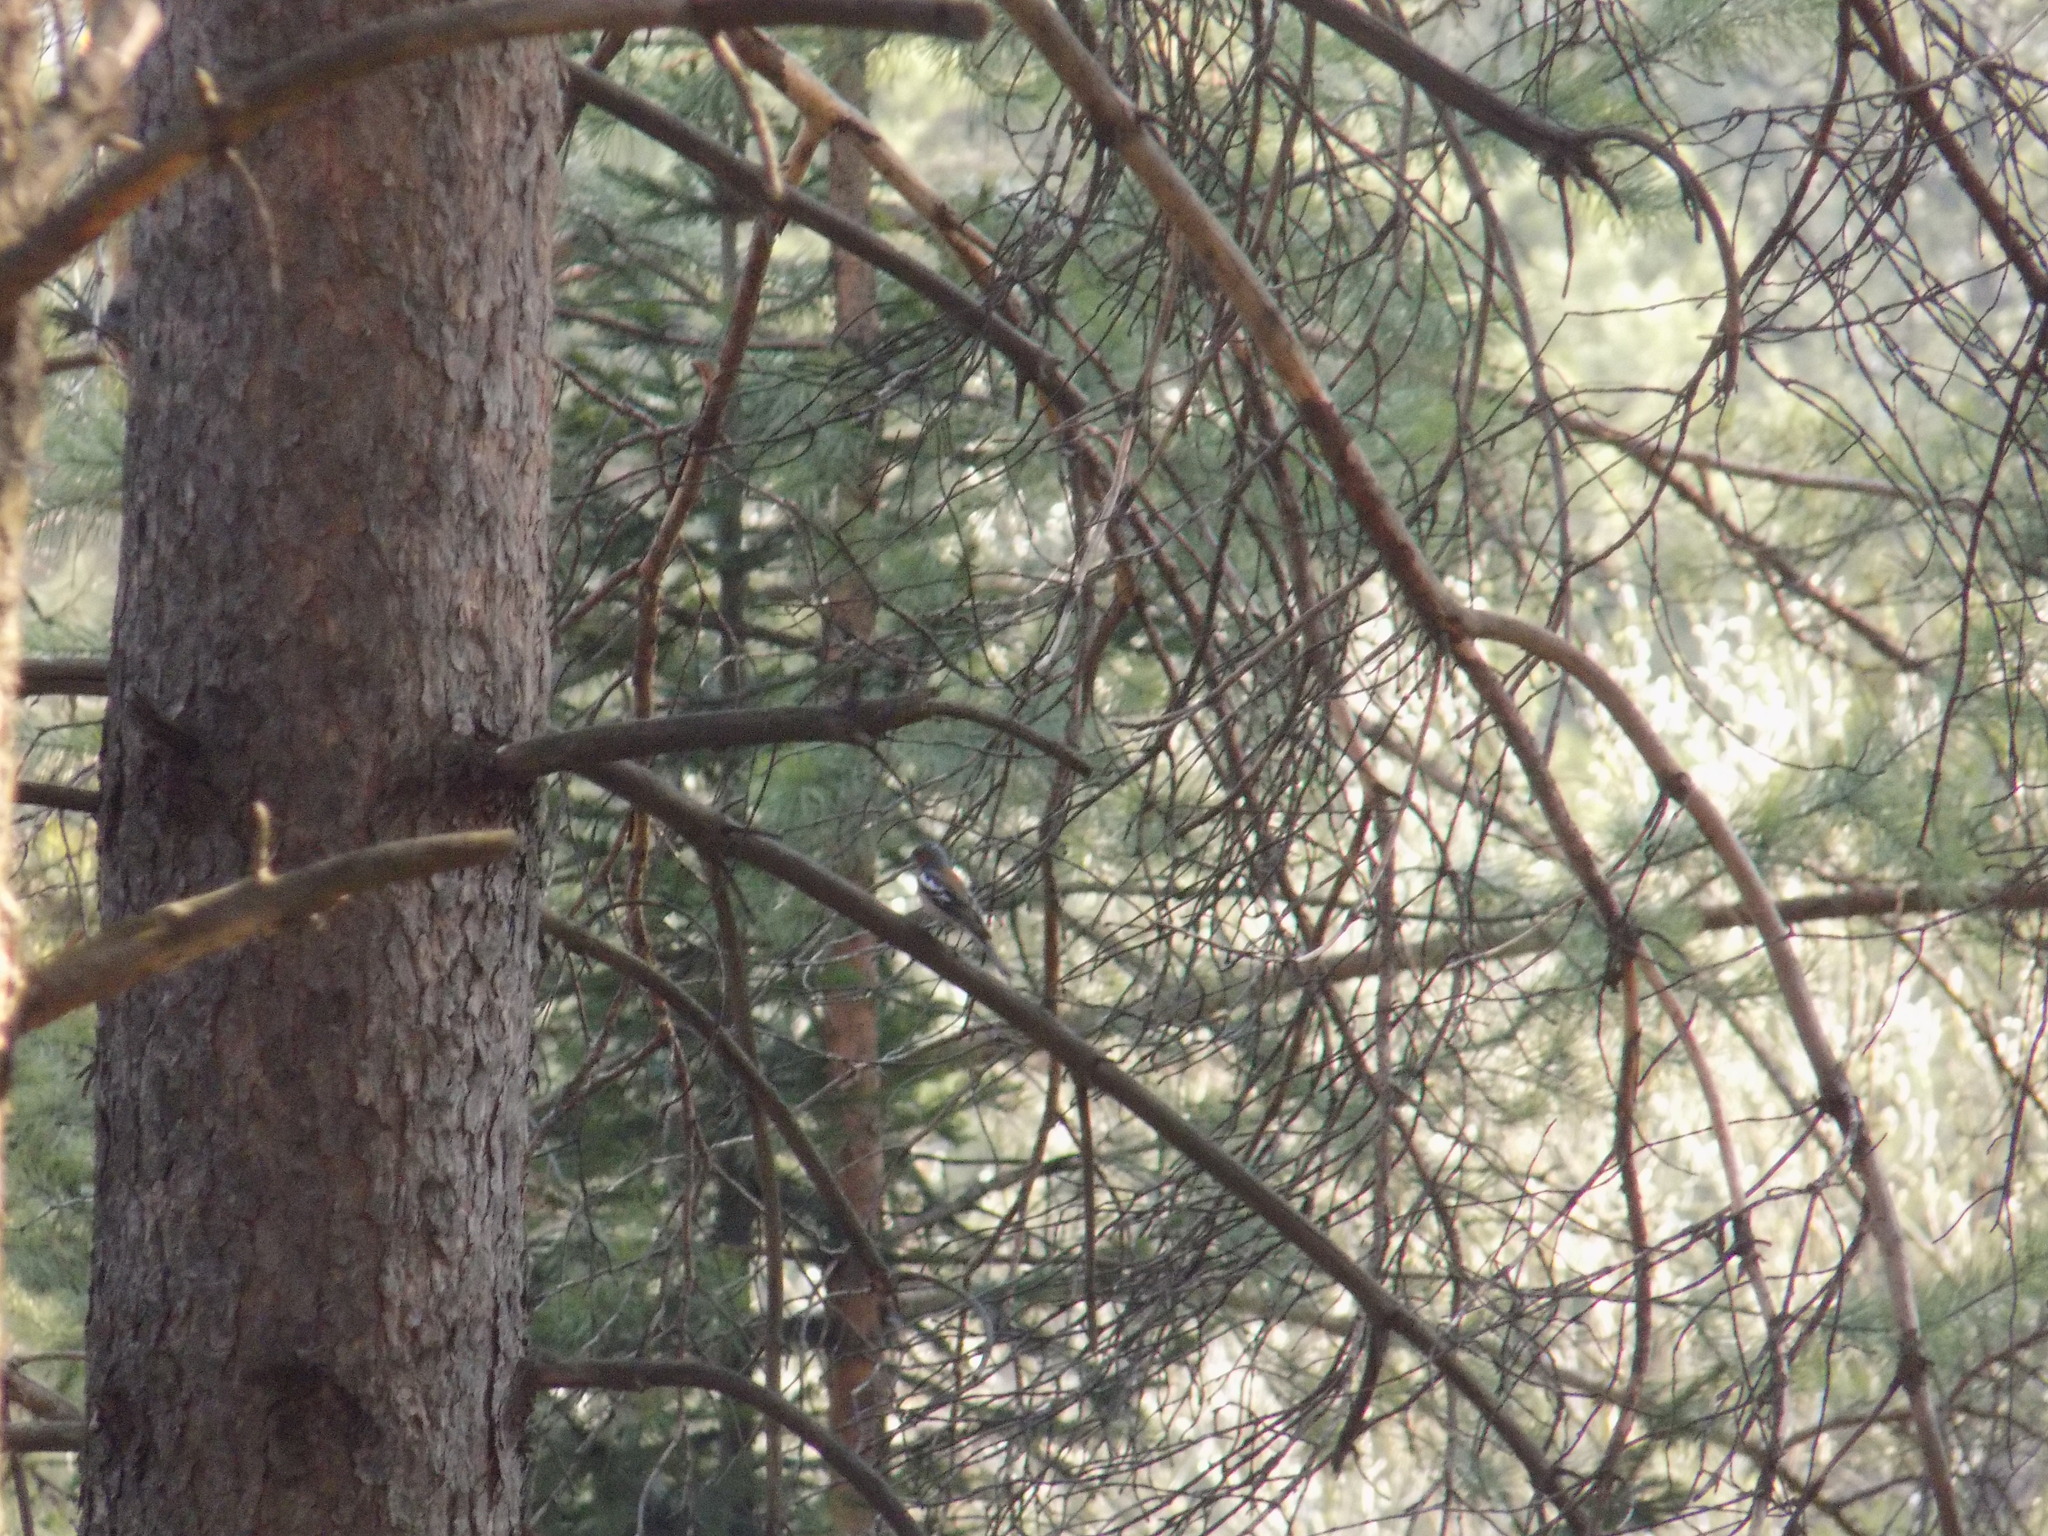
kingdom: Animalia
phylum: Chordata
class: Aves
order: Passeriformes
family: Fringillidae
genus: Fringilla
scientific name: Fringilla coelebs
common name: Common chaffinch
